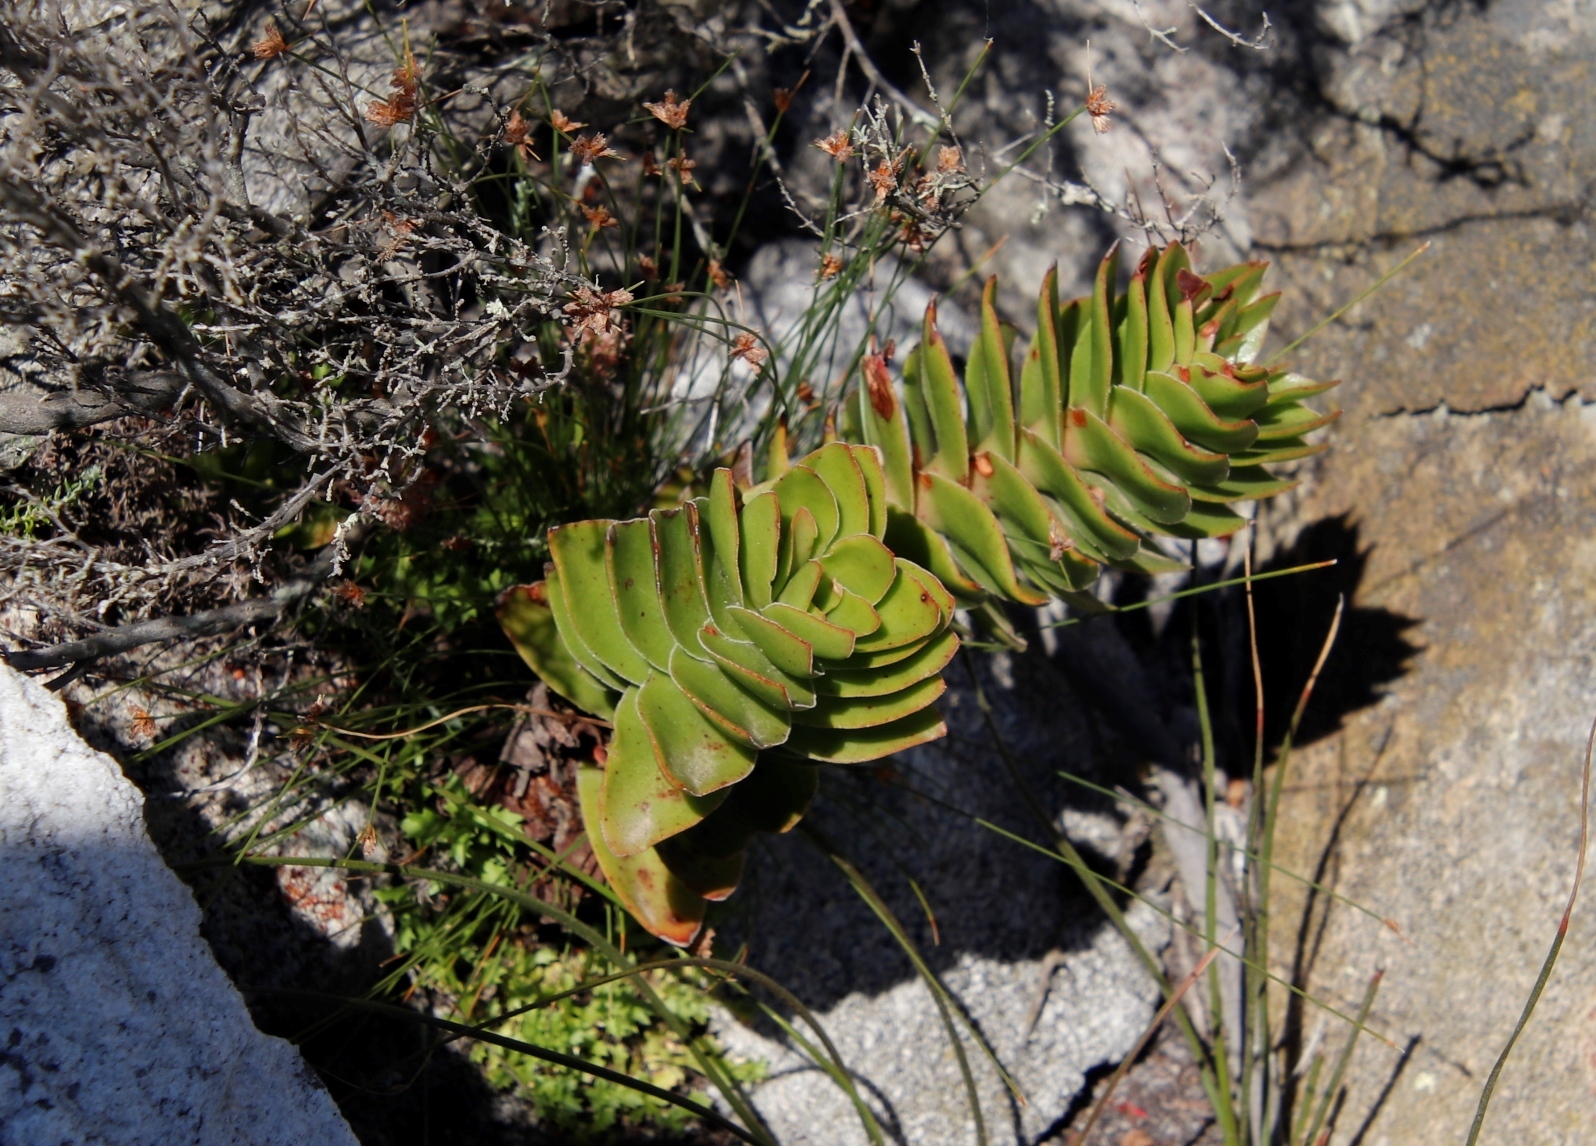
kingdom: Plantae
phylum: Tracheophyta
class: Magnoliopsida
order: Saxifragales
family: Crassulaceae
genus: Crassula
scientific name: Crassula coccinea
